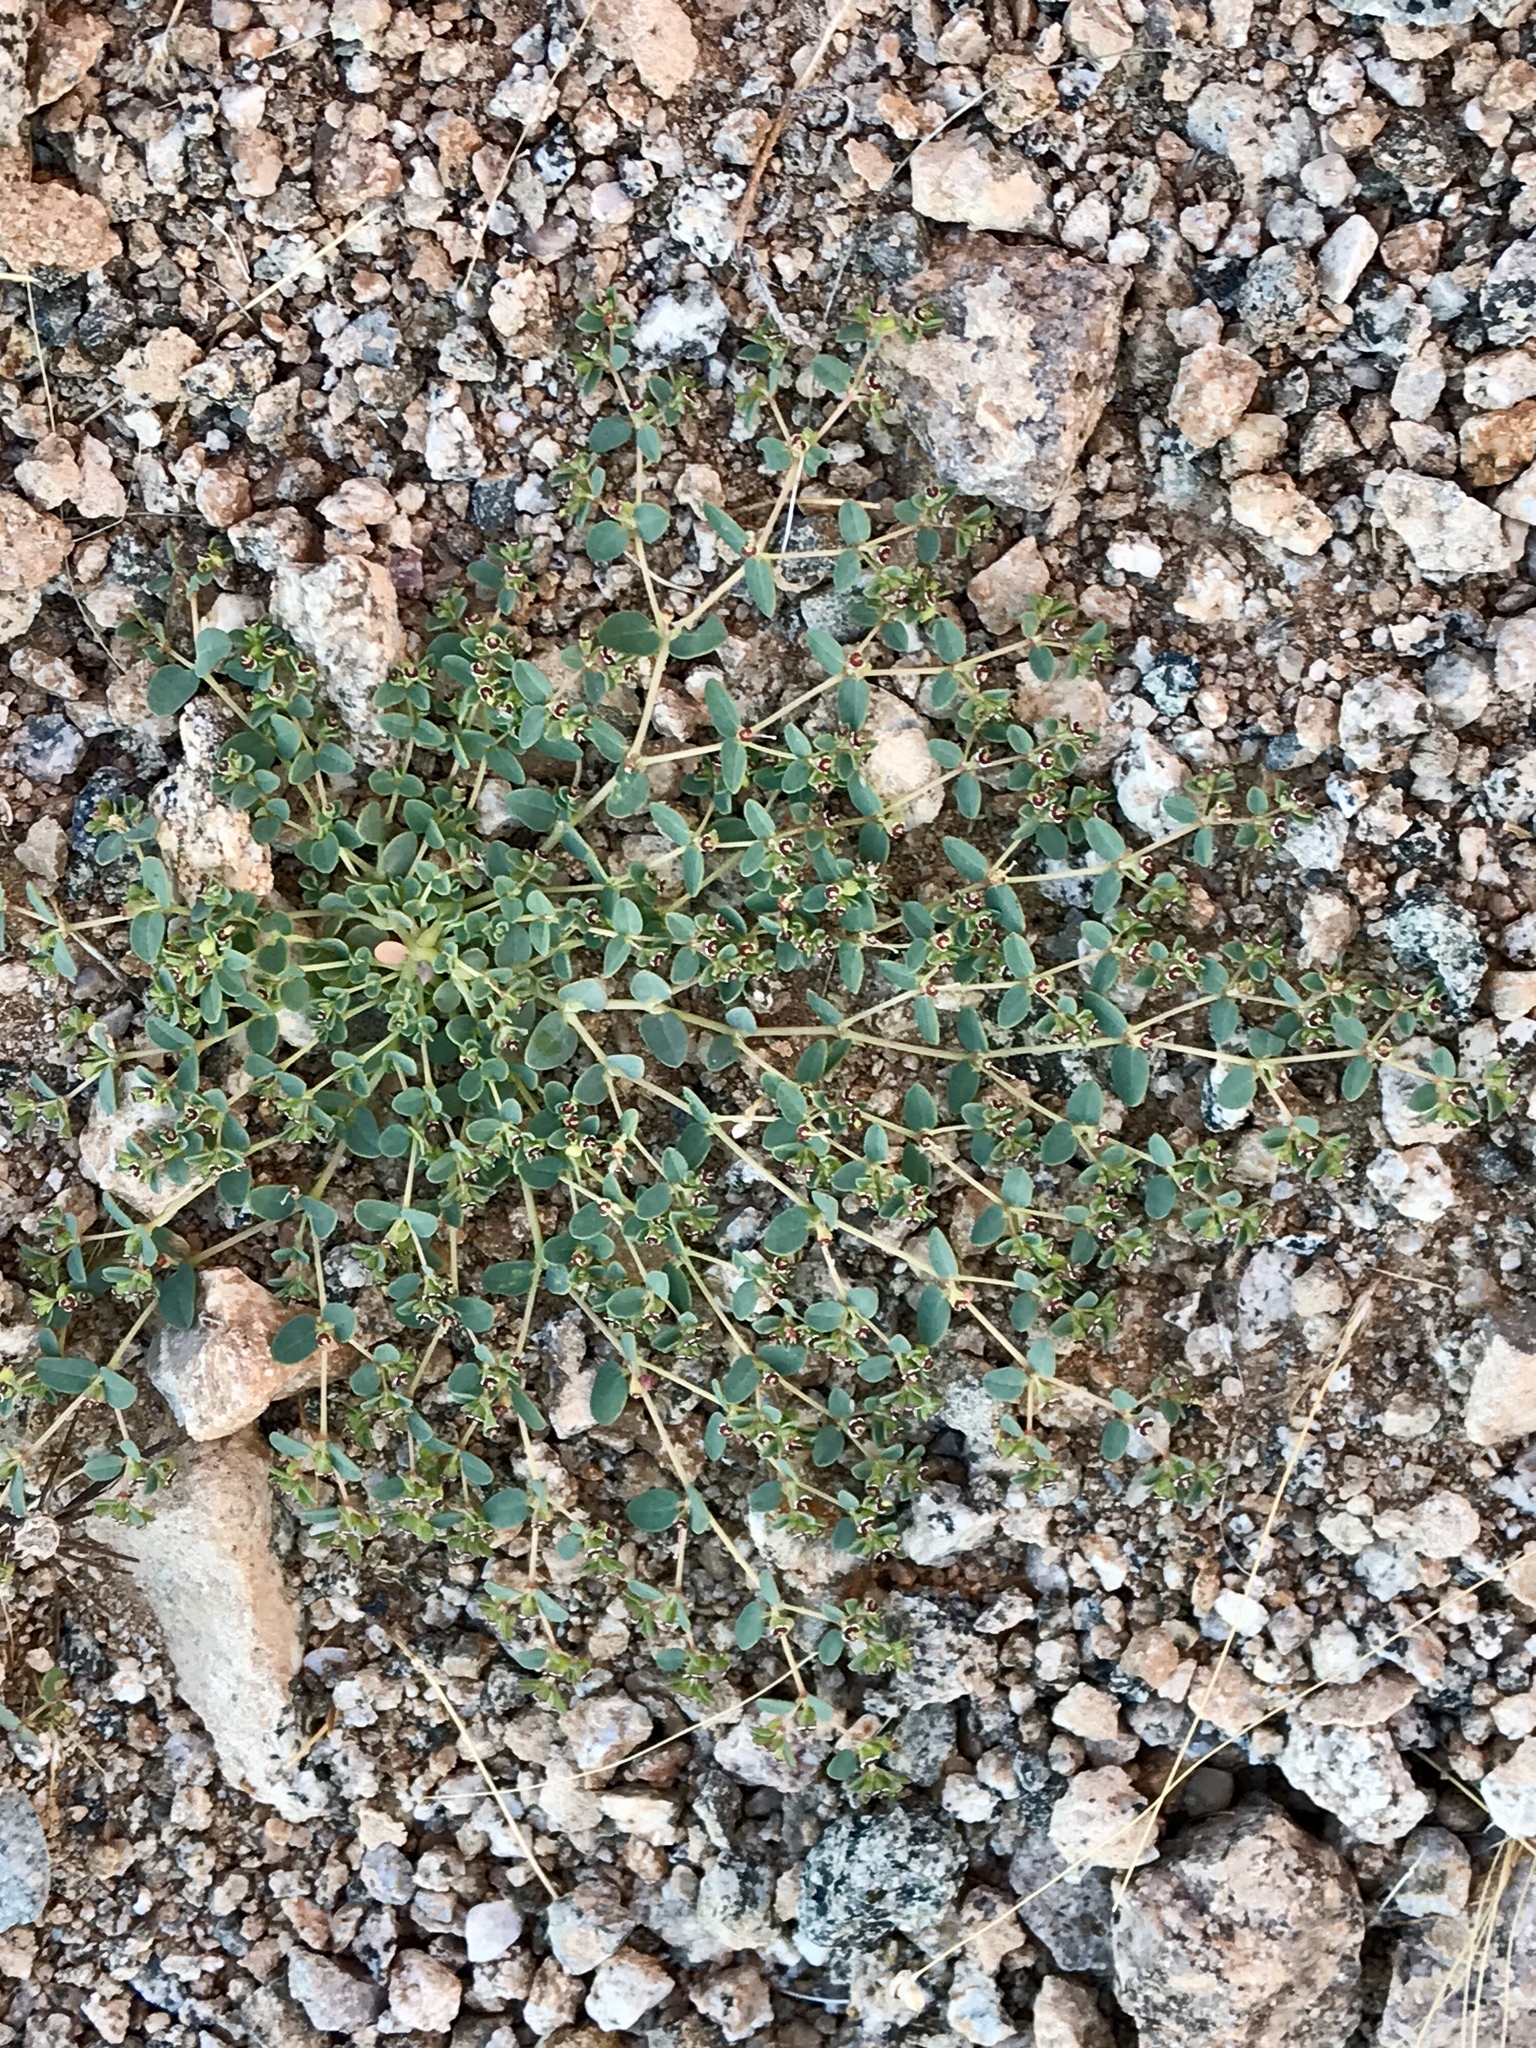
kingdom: Plantae
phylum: Tracheophyta
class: Magnoliopsida
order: Malpighiales
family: Euphorbiaceae
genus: Euphorbia
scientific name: Euphorbia polycarpa
